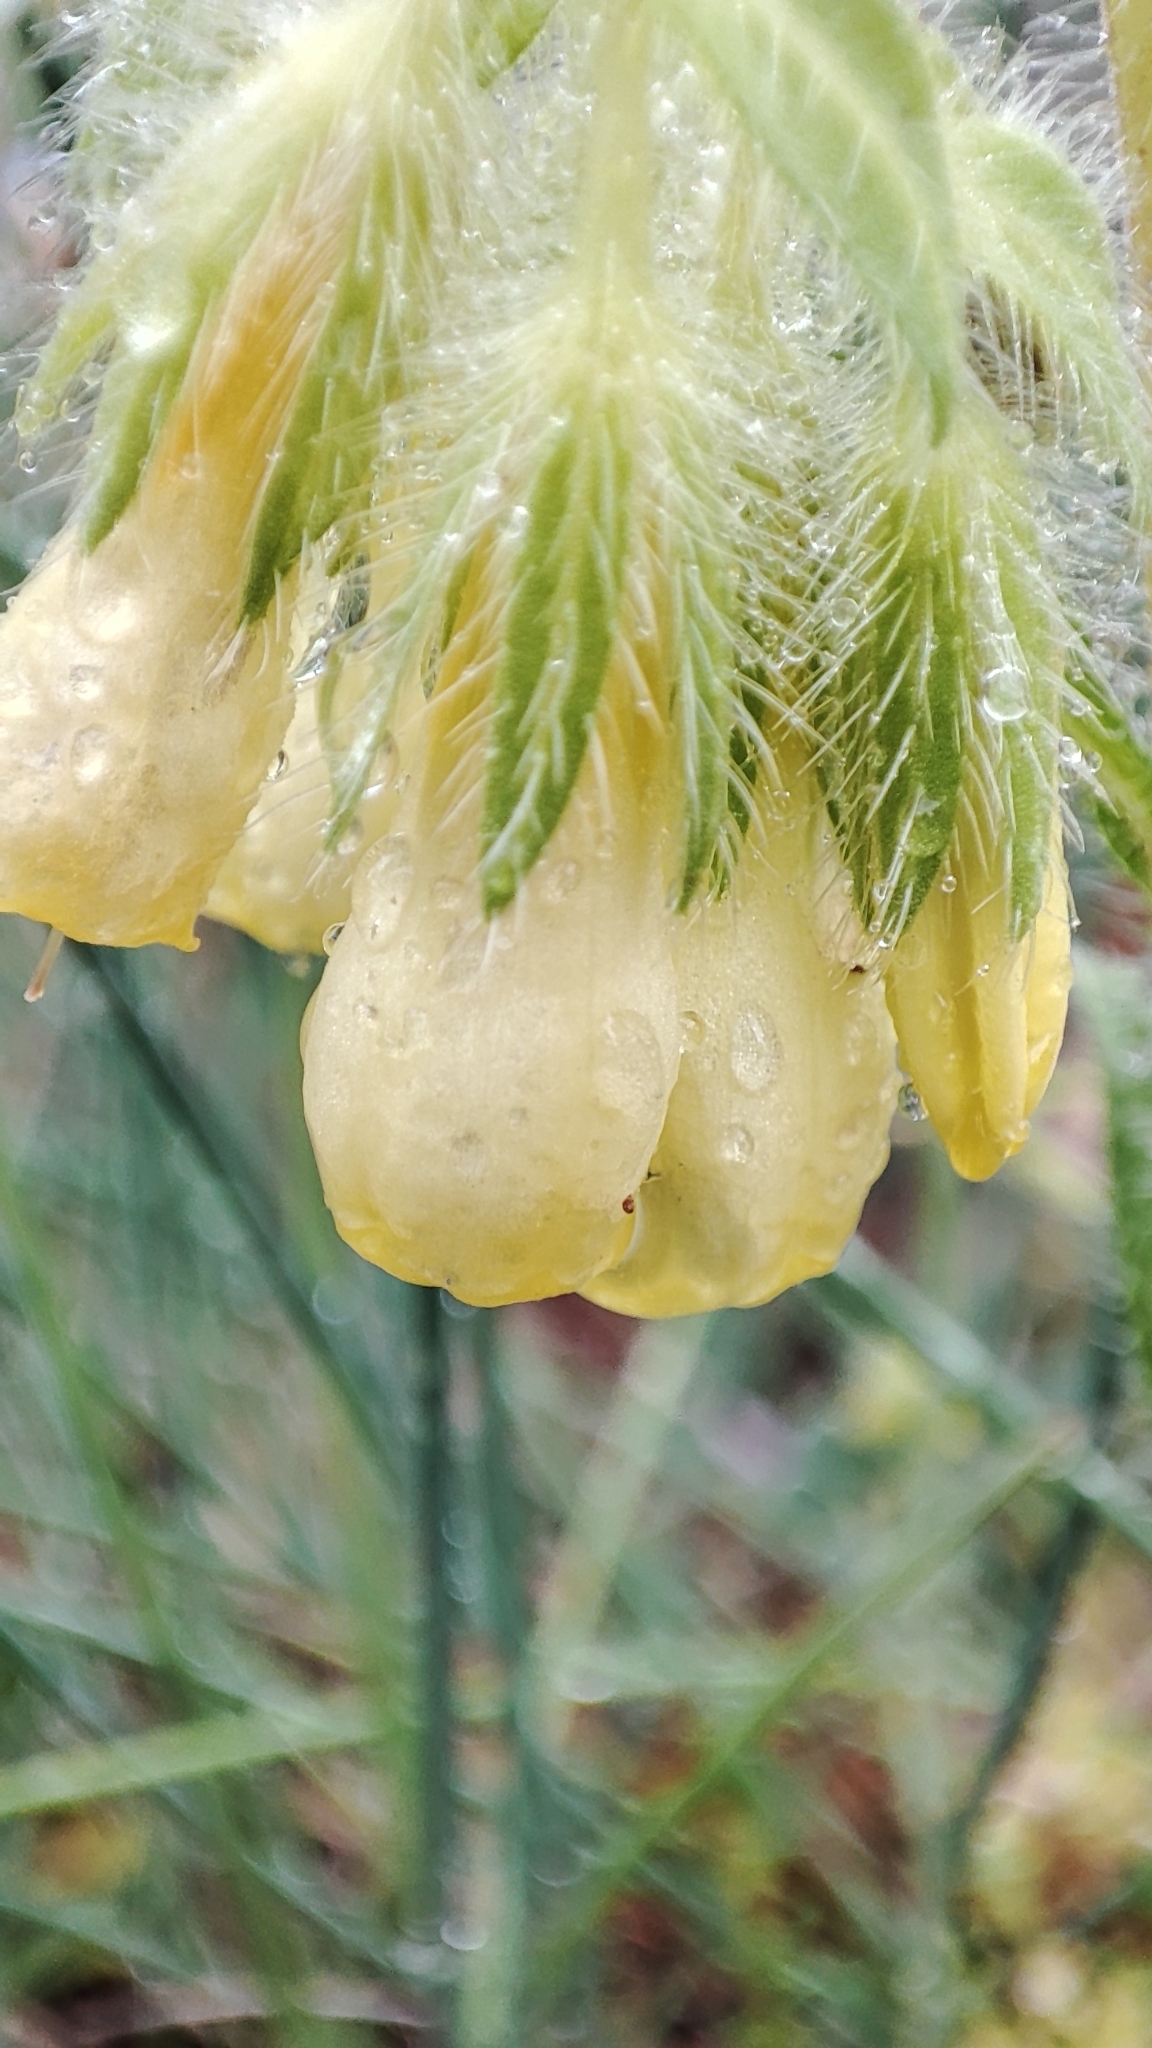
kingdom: Plantae
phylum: Tracheophyta
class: Magnoliopsida
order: Boraginales
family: Boraginaceae
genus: Onosma
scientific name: Onosma tricerosperma
